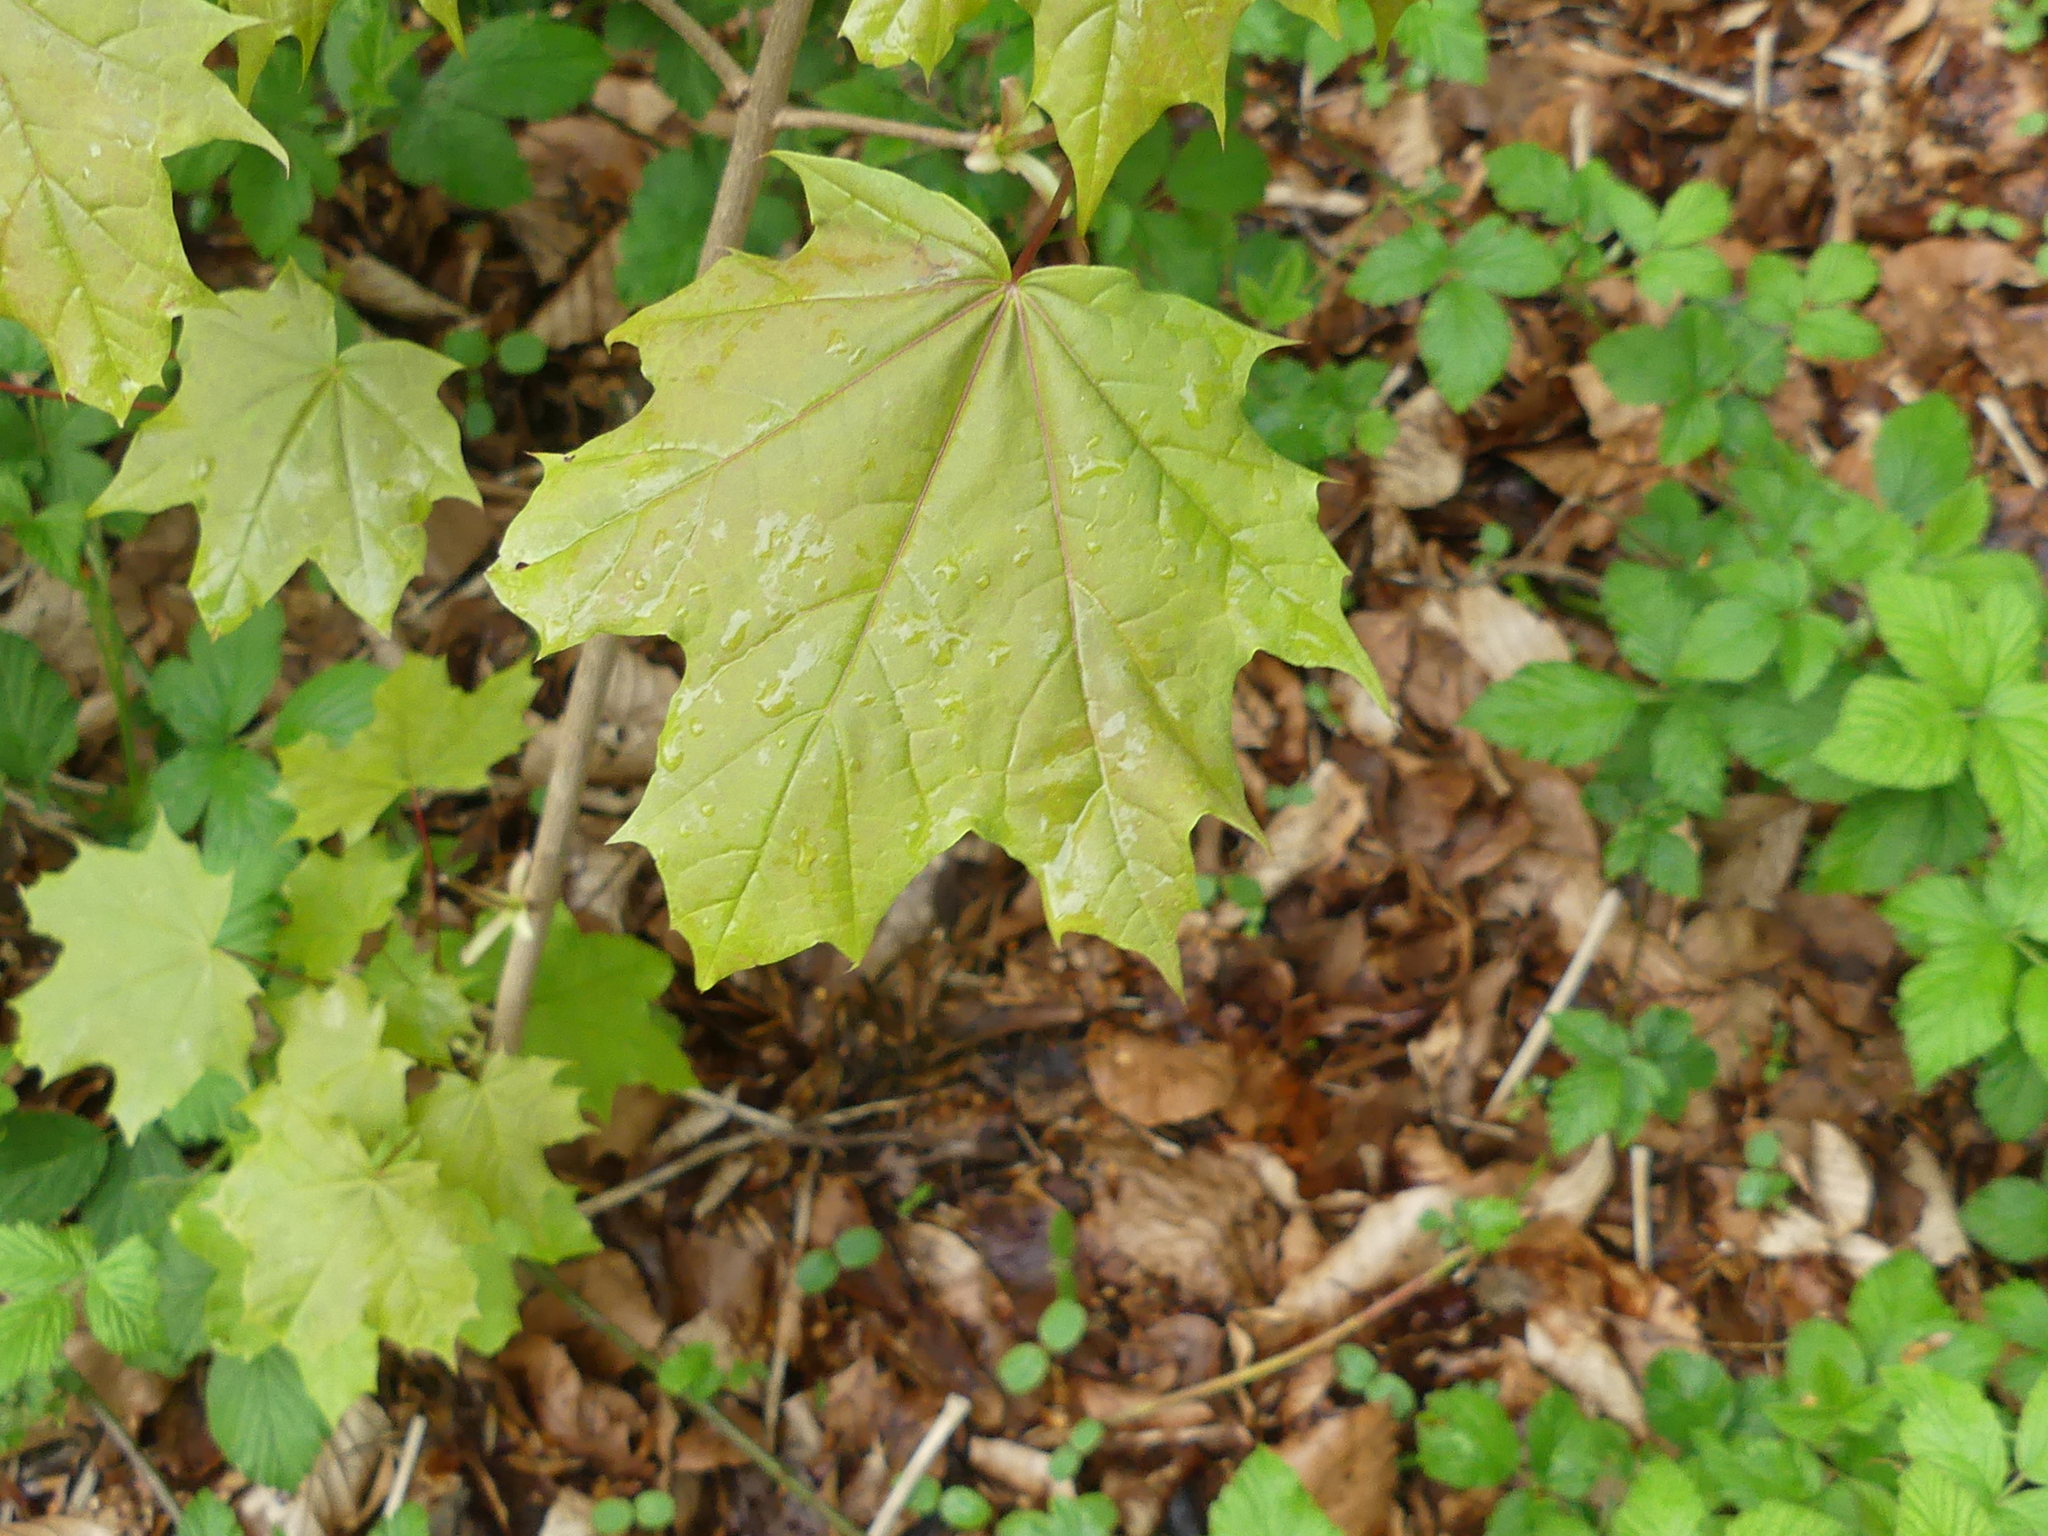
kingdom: Plantae
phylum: Tracheophyta
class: Magnoliopsida
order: Sapindales
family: Sapindaceae
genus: Acer
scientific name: Acer platanoides
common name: Norway maple
